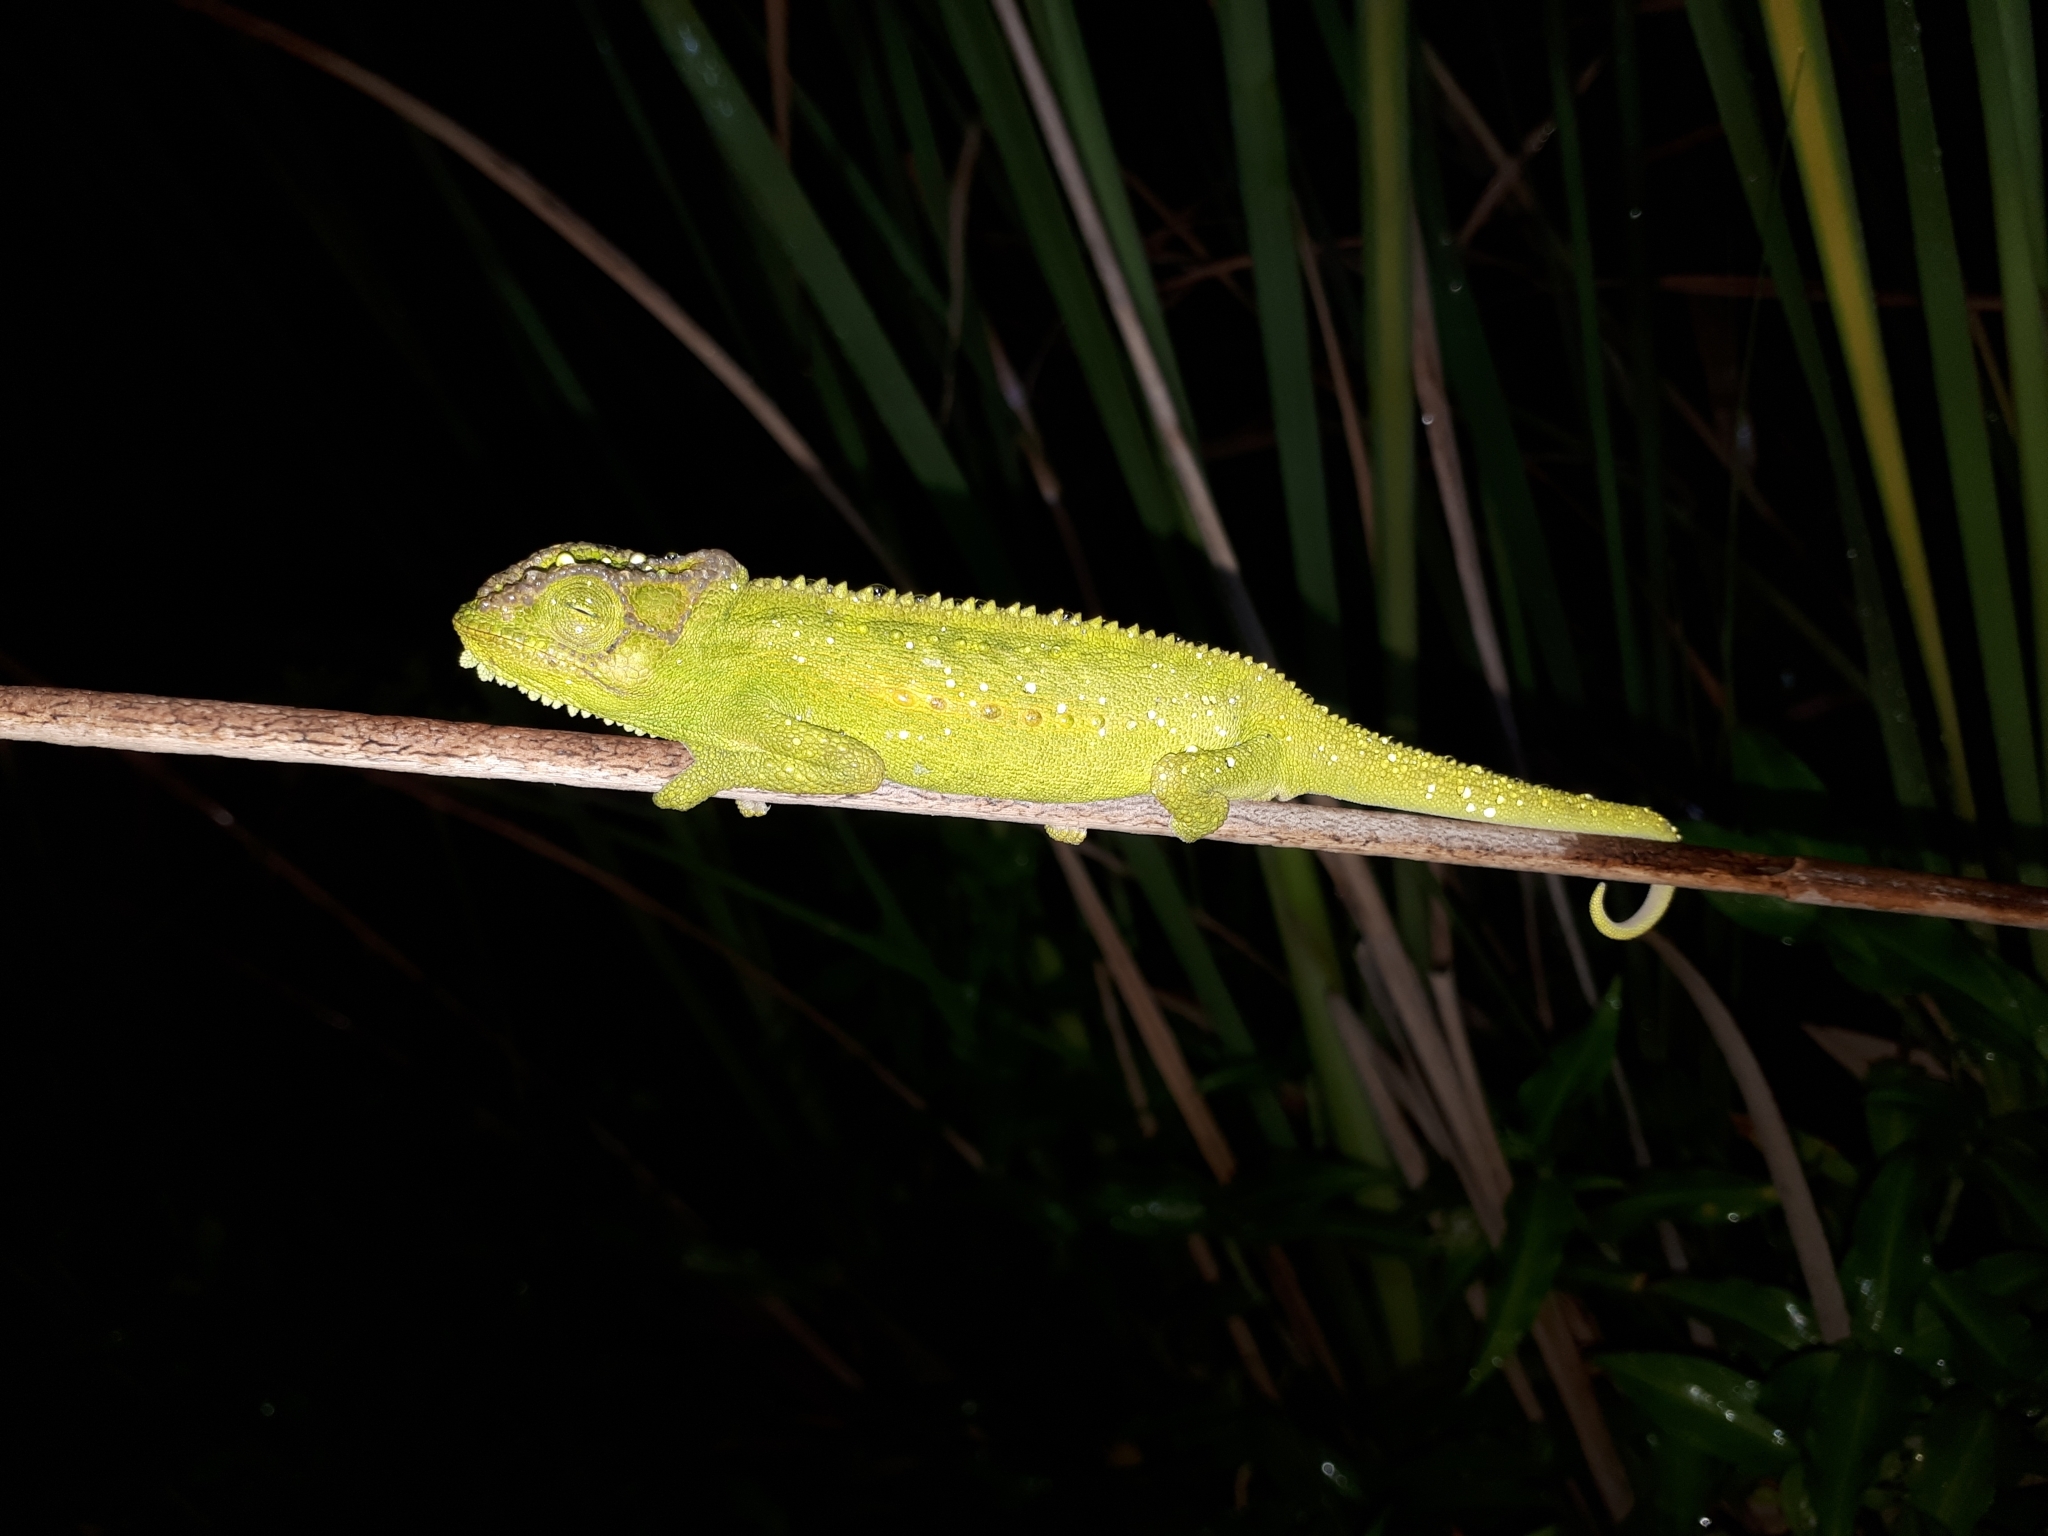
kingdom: Animalia
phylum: Chordata
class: Squamata
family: Chamaeleonidae
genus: Bradypodion
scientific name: Bradypodion pumilum
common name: Cape dwarf chameleon
